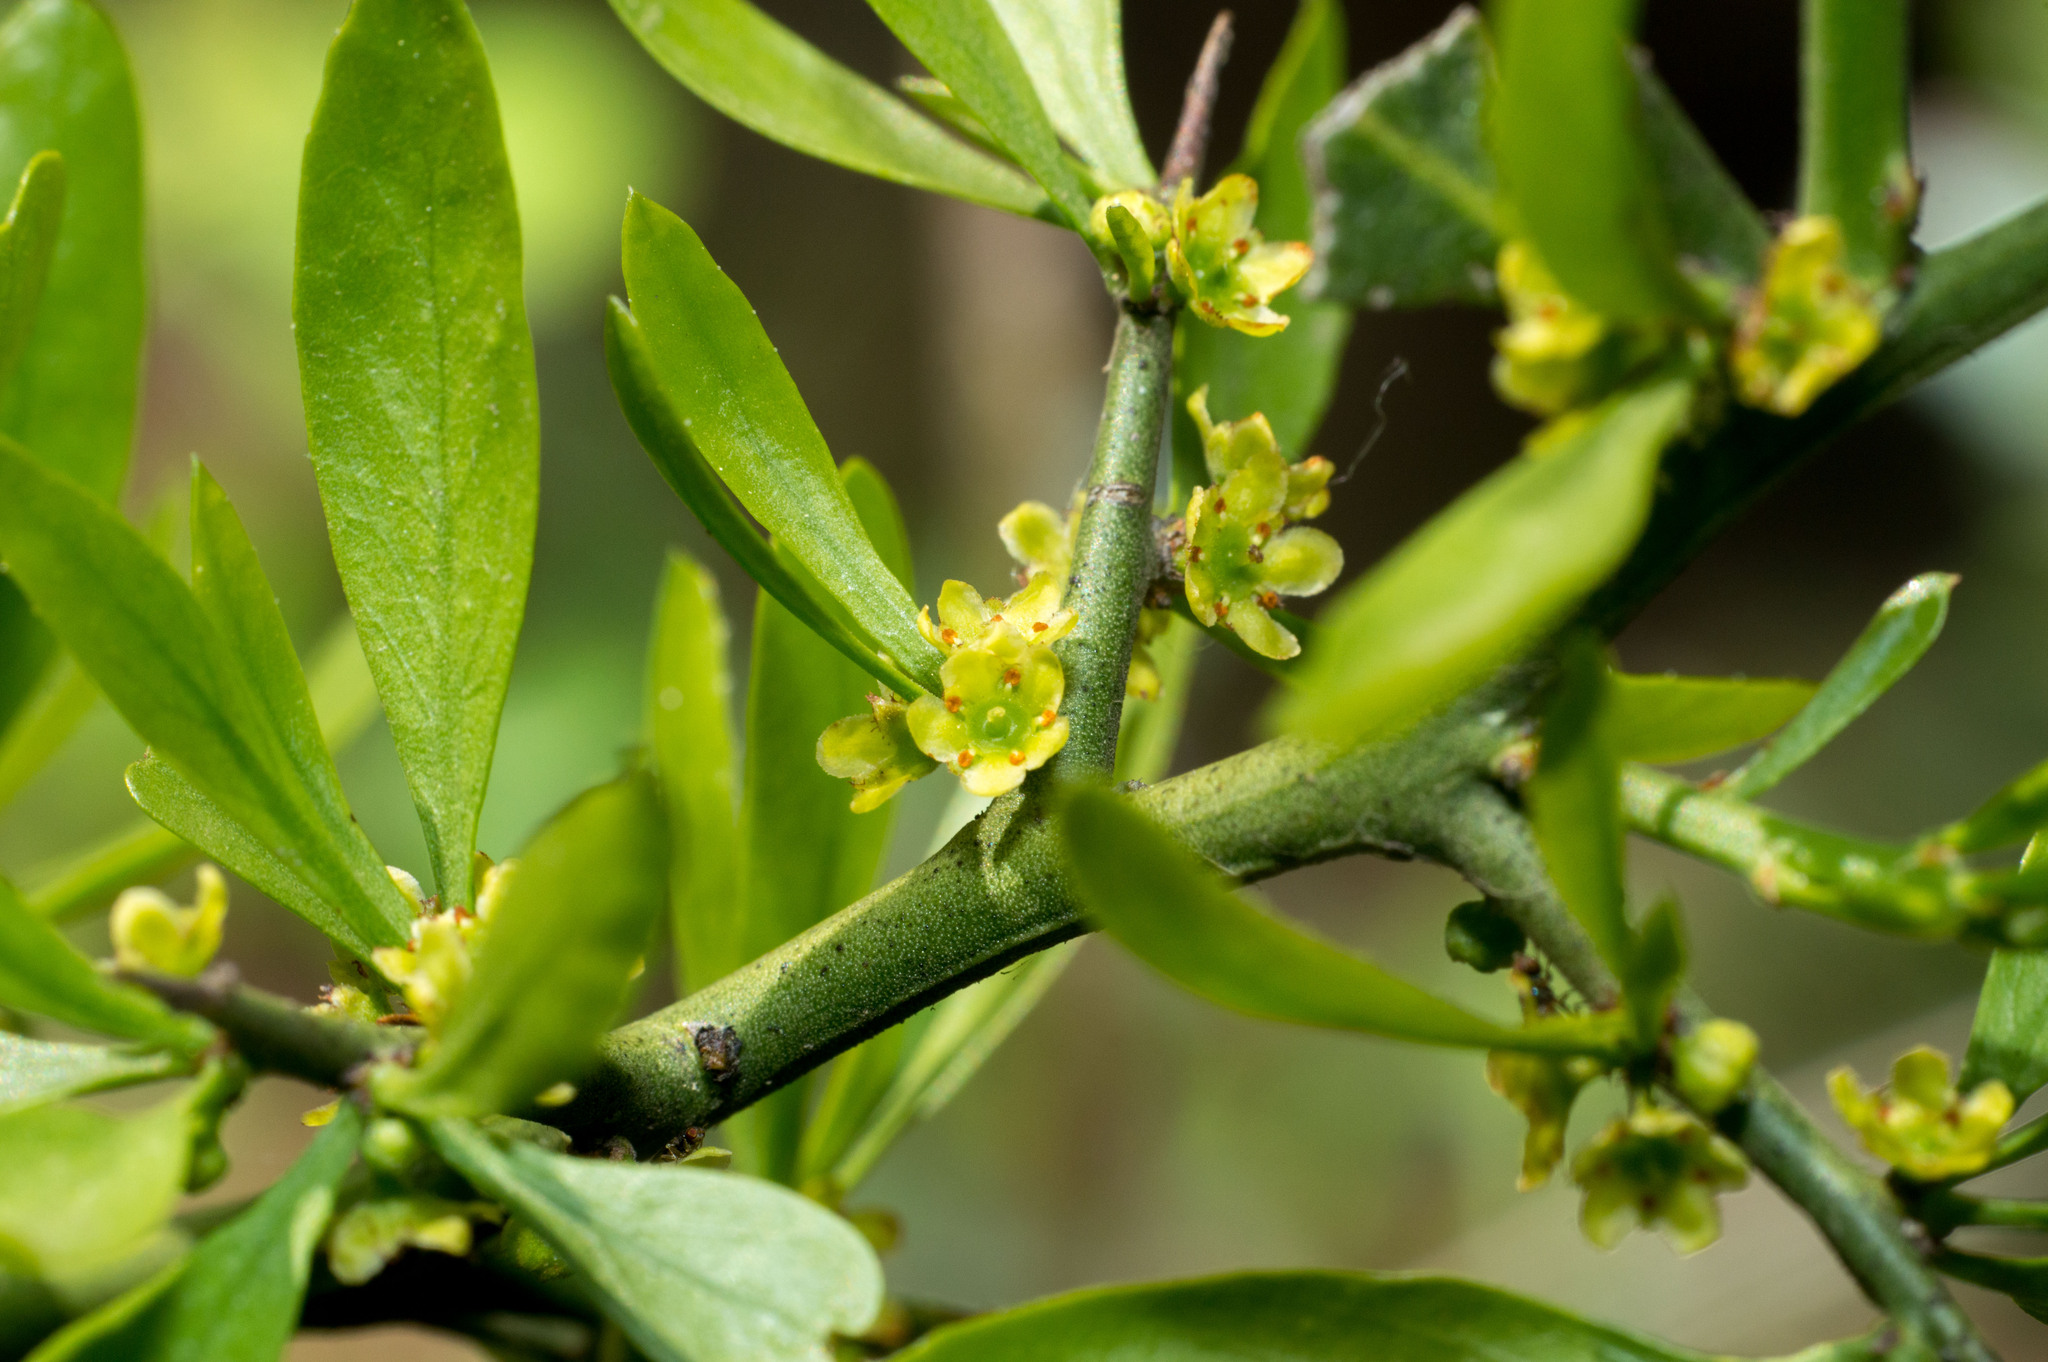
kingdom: Plantae
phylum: Tracheophyta
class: Magnoliopsida
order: Celastrales
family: Celastraceae
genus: Monteverdia
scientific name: Monteverdia spinosa
